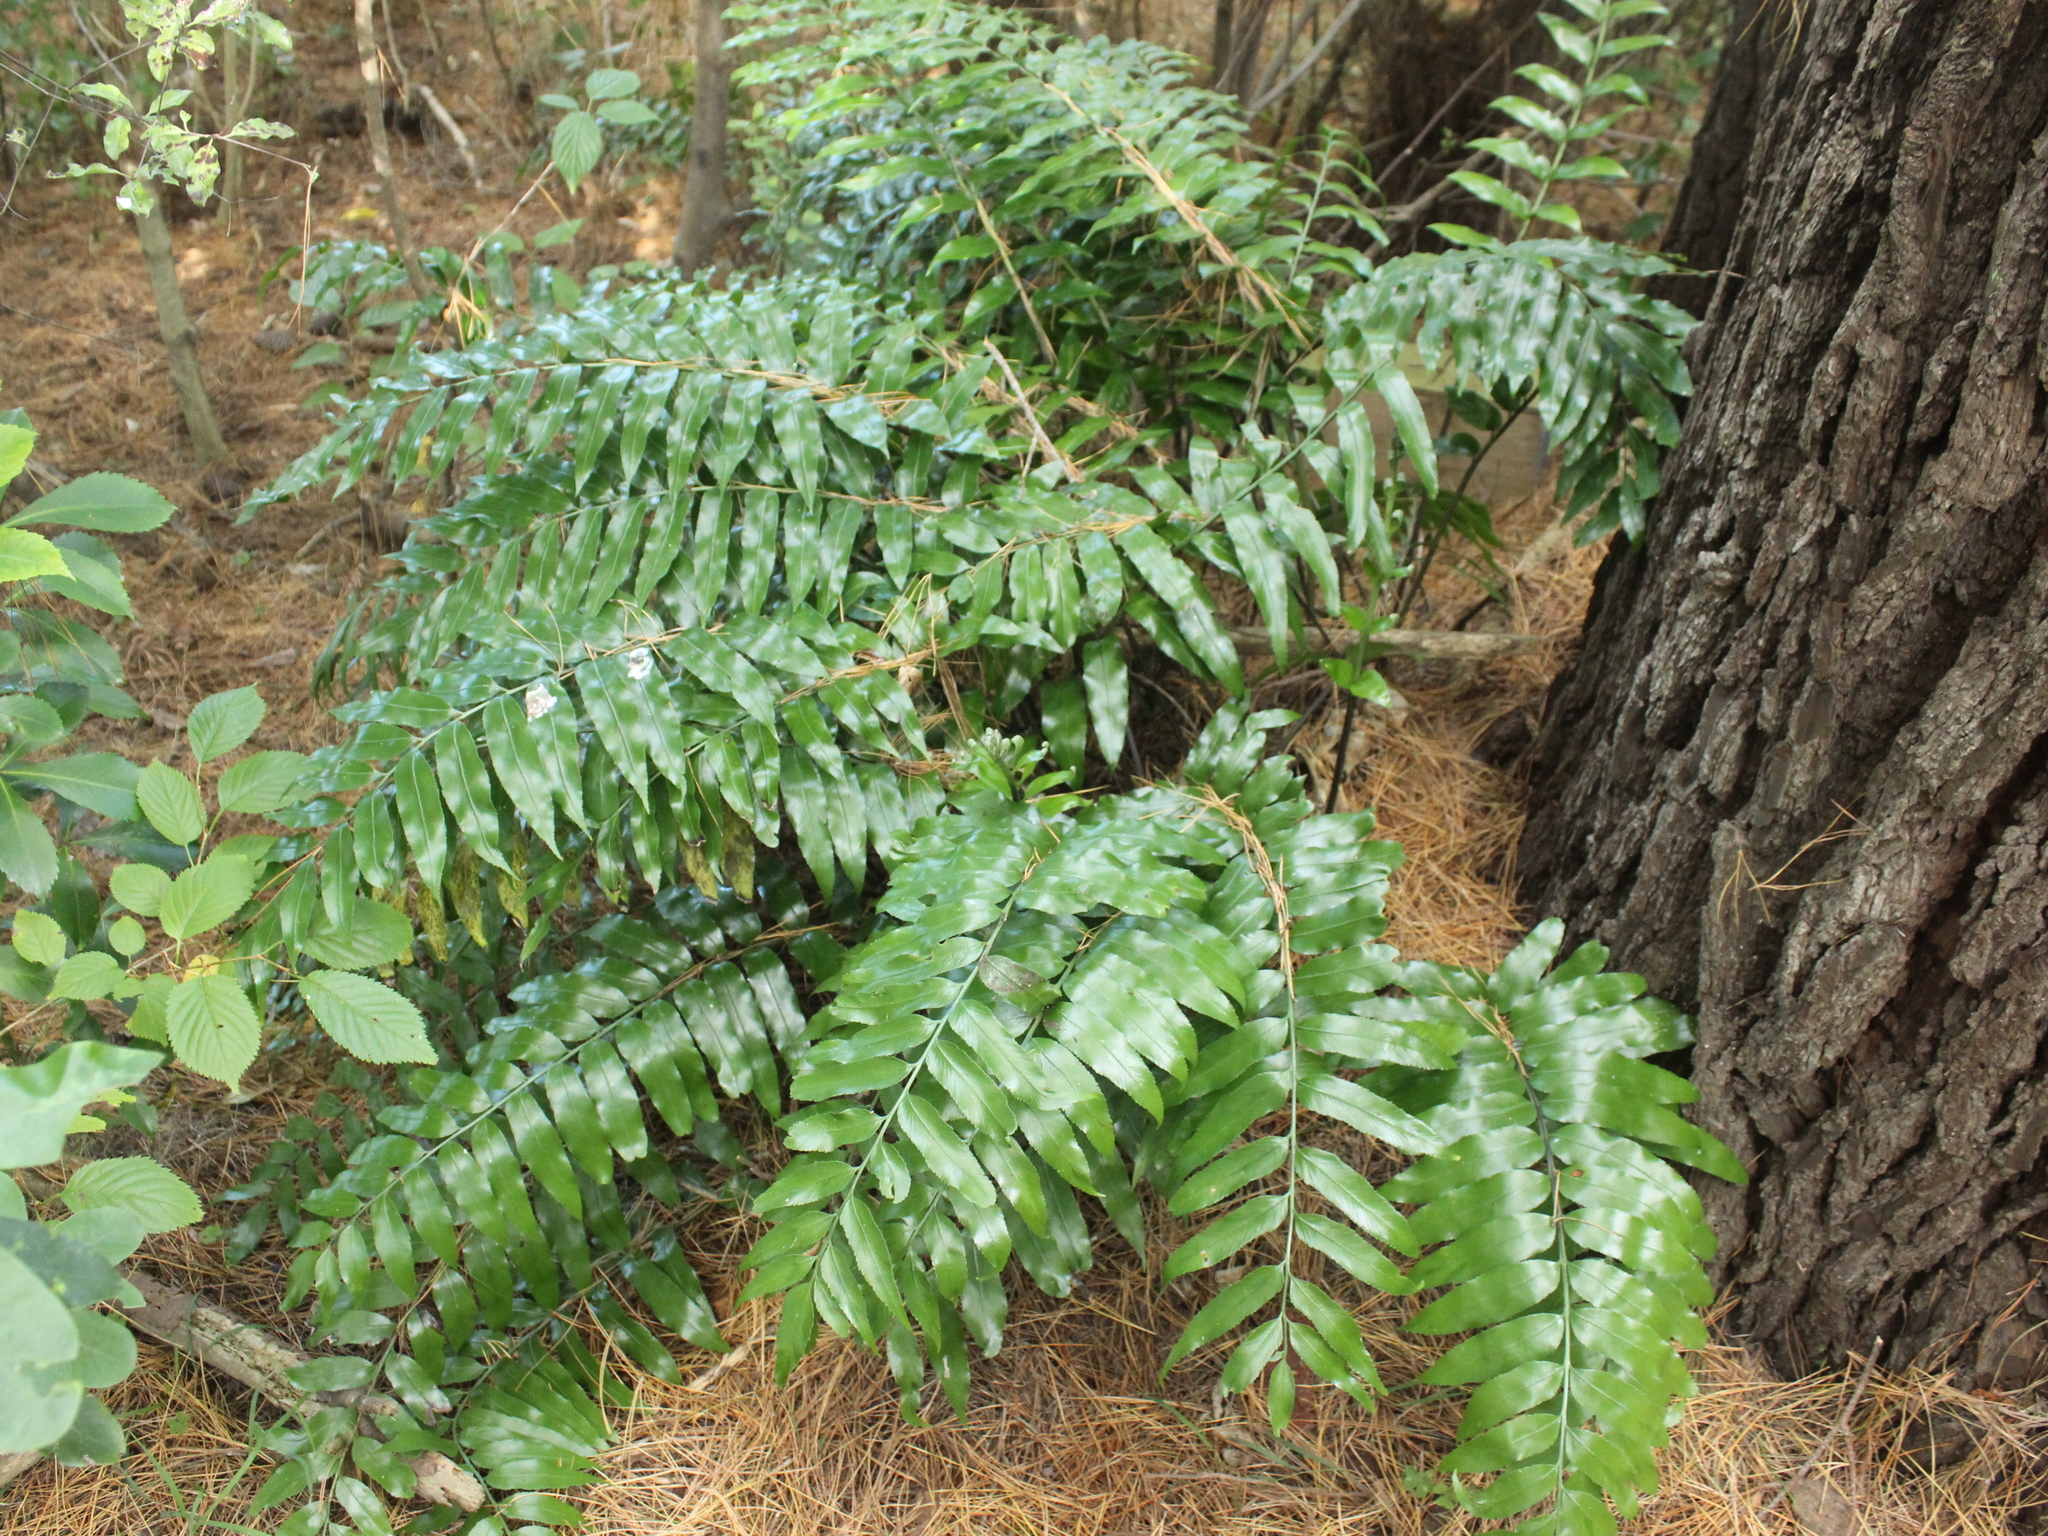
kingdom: Plantae
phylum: Tracheophyta
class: Polypodiopsida
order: Polypodiales
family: Aspleniaceae
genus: Asplenium
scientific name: Asplenium oblongifolium
